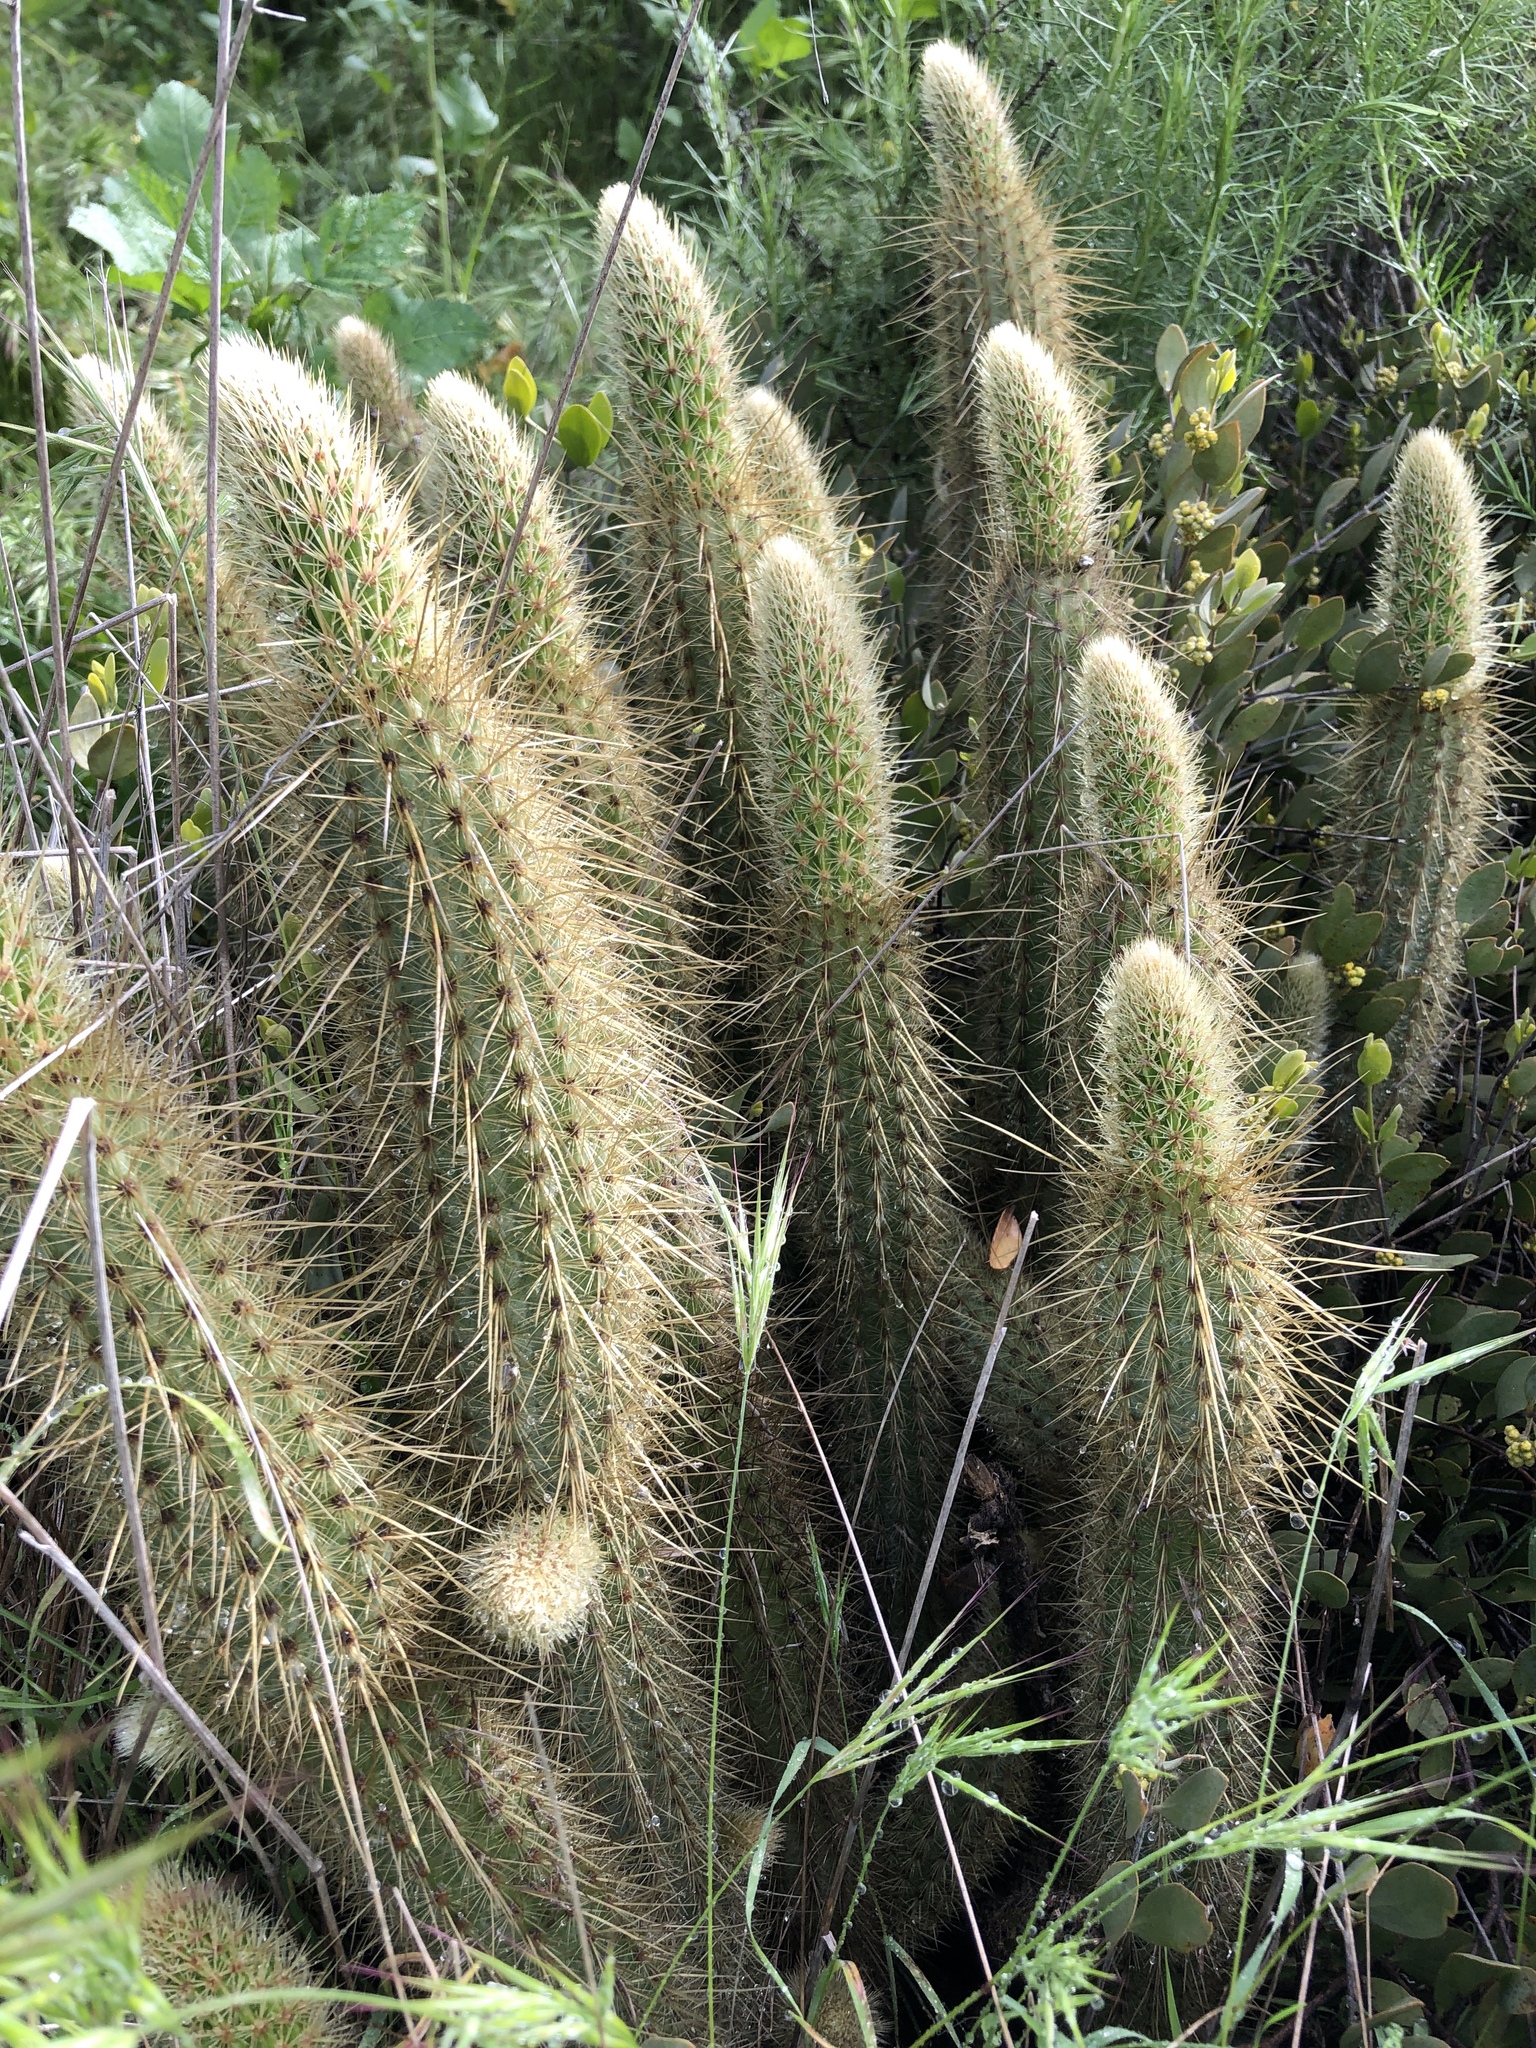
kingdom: Plantae
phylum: Tracheophyta
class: Magnoliopsida
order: Caryophyllales
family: Cactaceae
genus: Bergerocactus
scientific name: Bergerocactus emoryi
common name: Golden snakecactus
